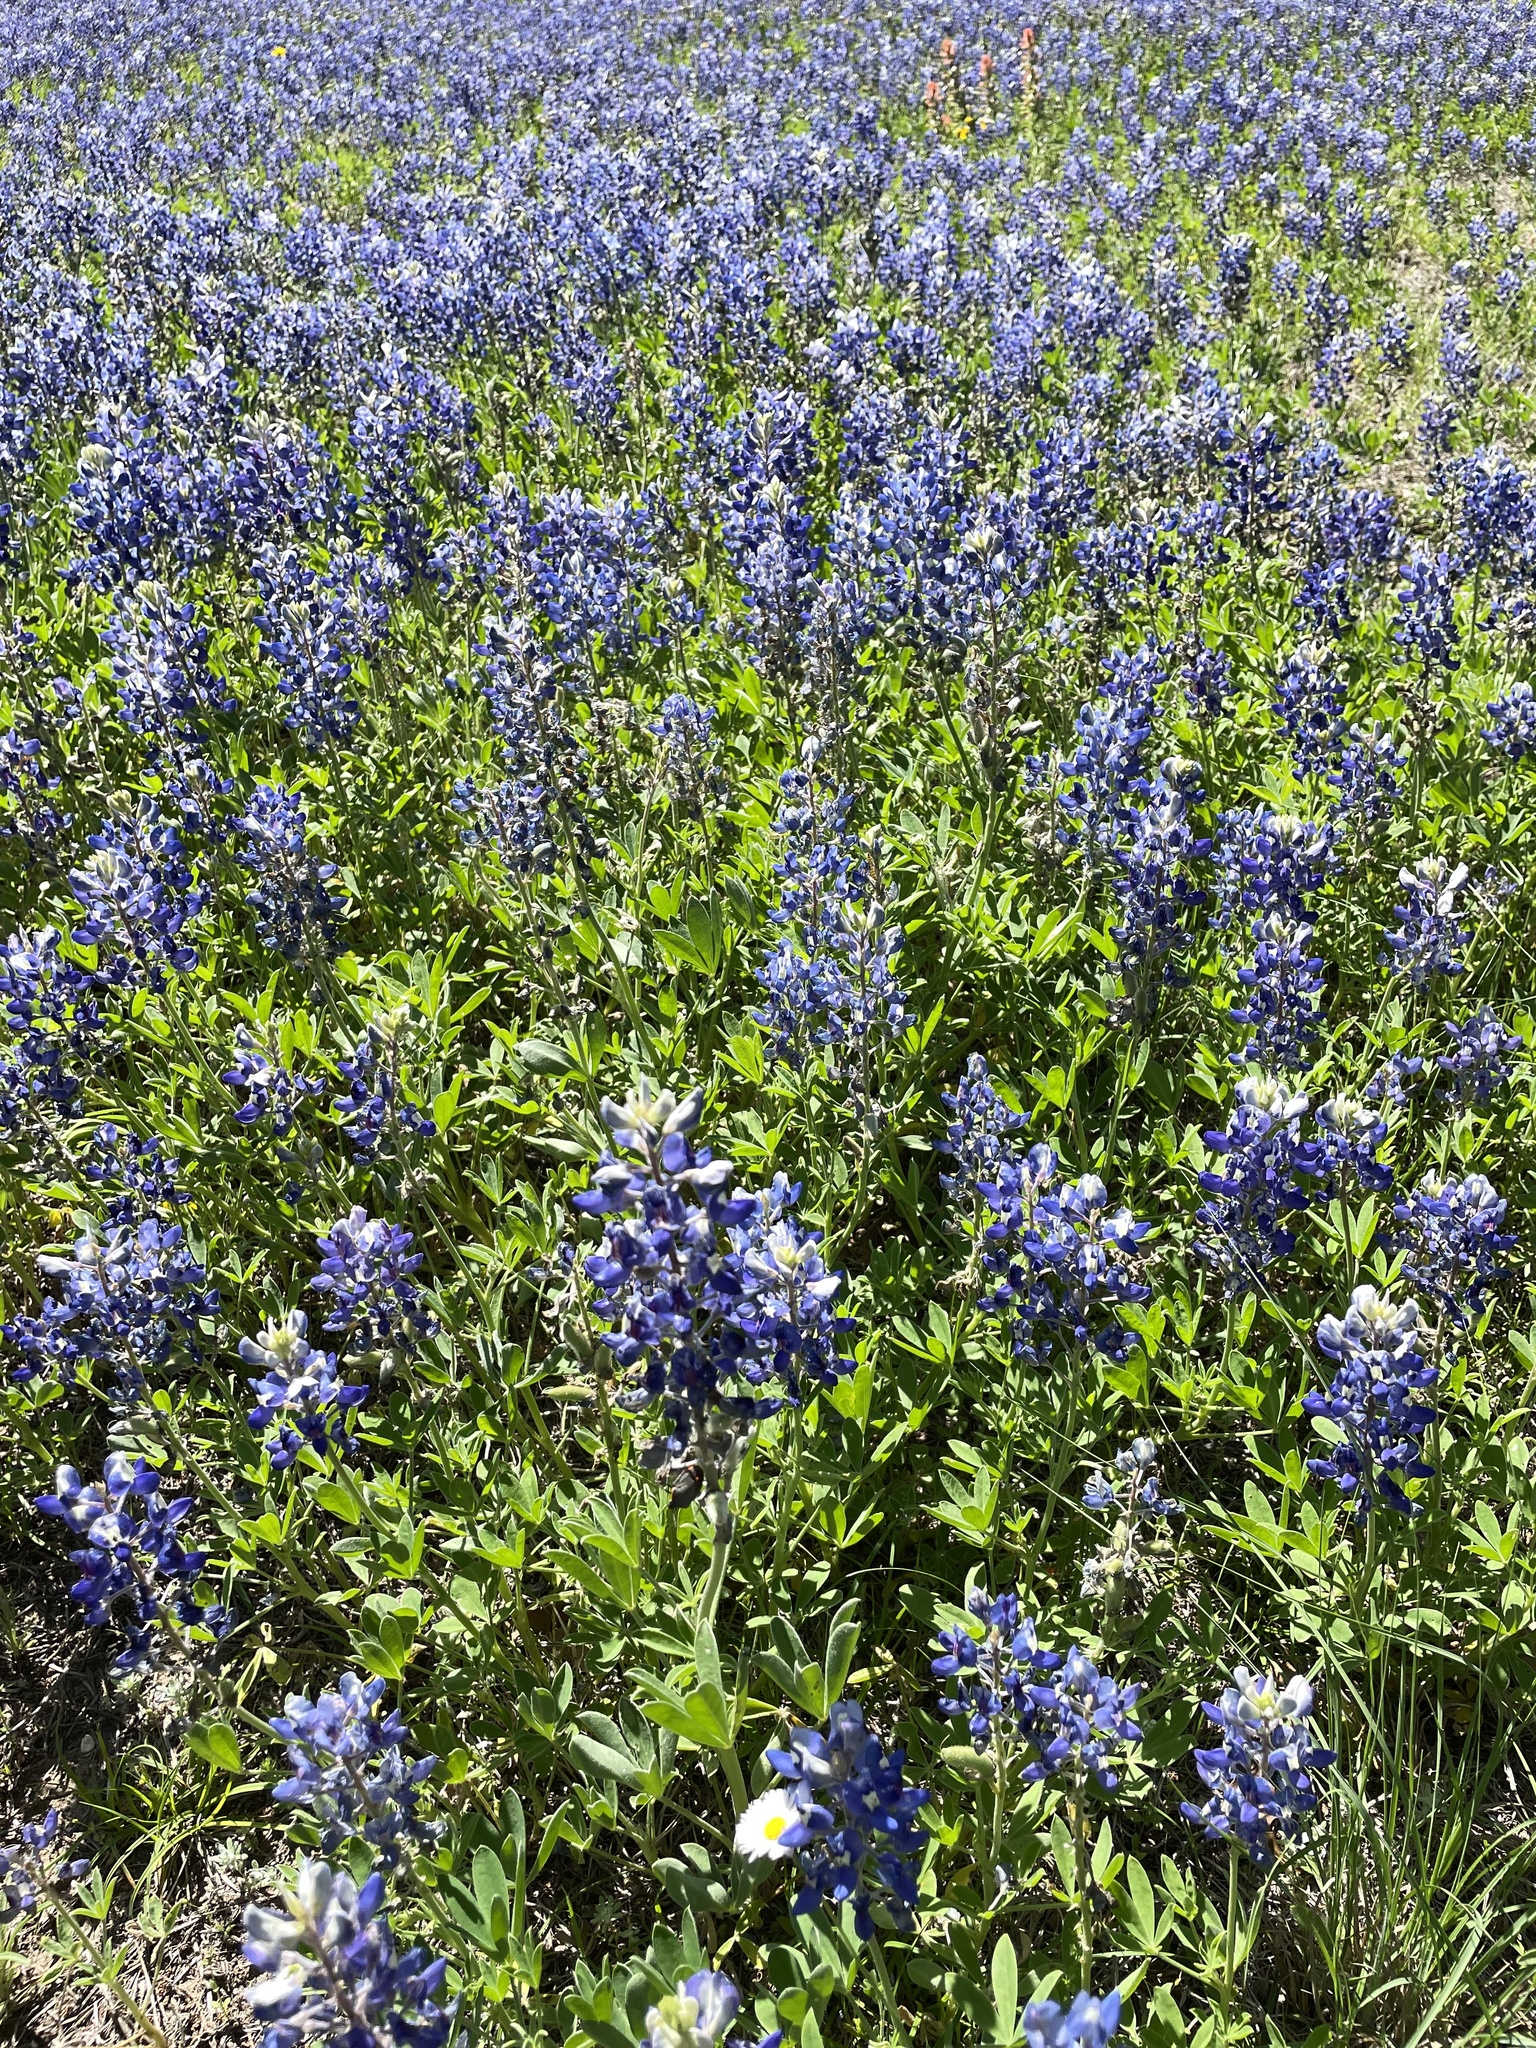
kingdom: Plantae
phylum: Tracheophyta
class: Magnoliopsida
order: Fabales
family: Fabaceae
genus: Lupinus
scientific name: Lupinus texensis
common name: Texas bluebonnet
